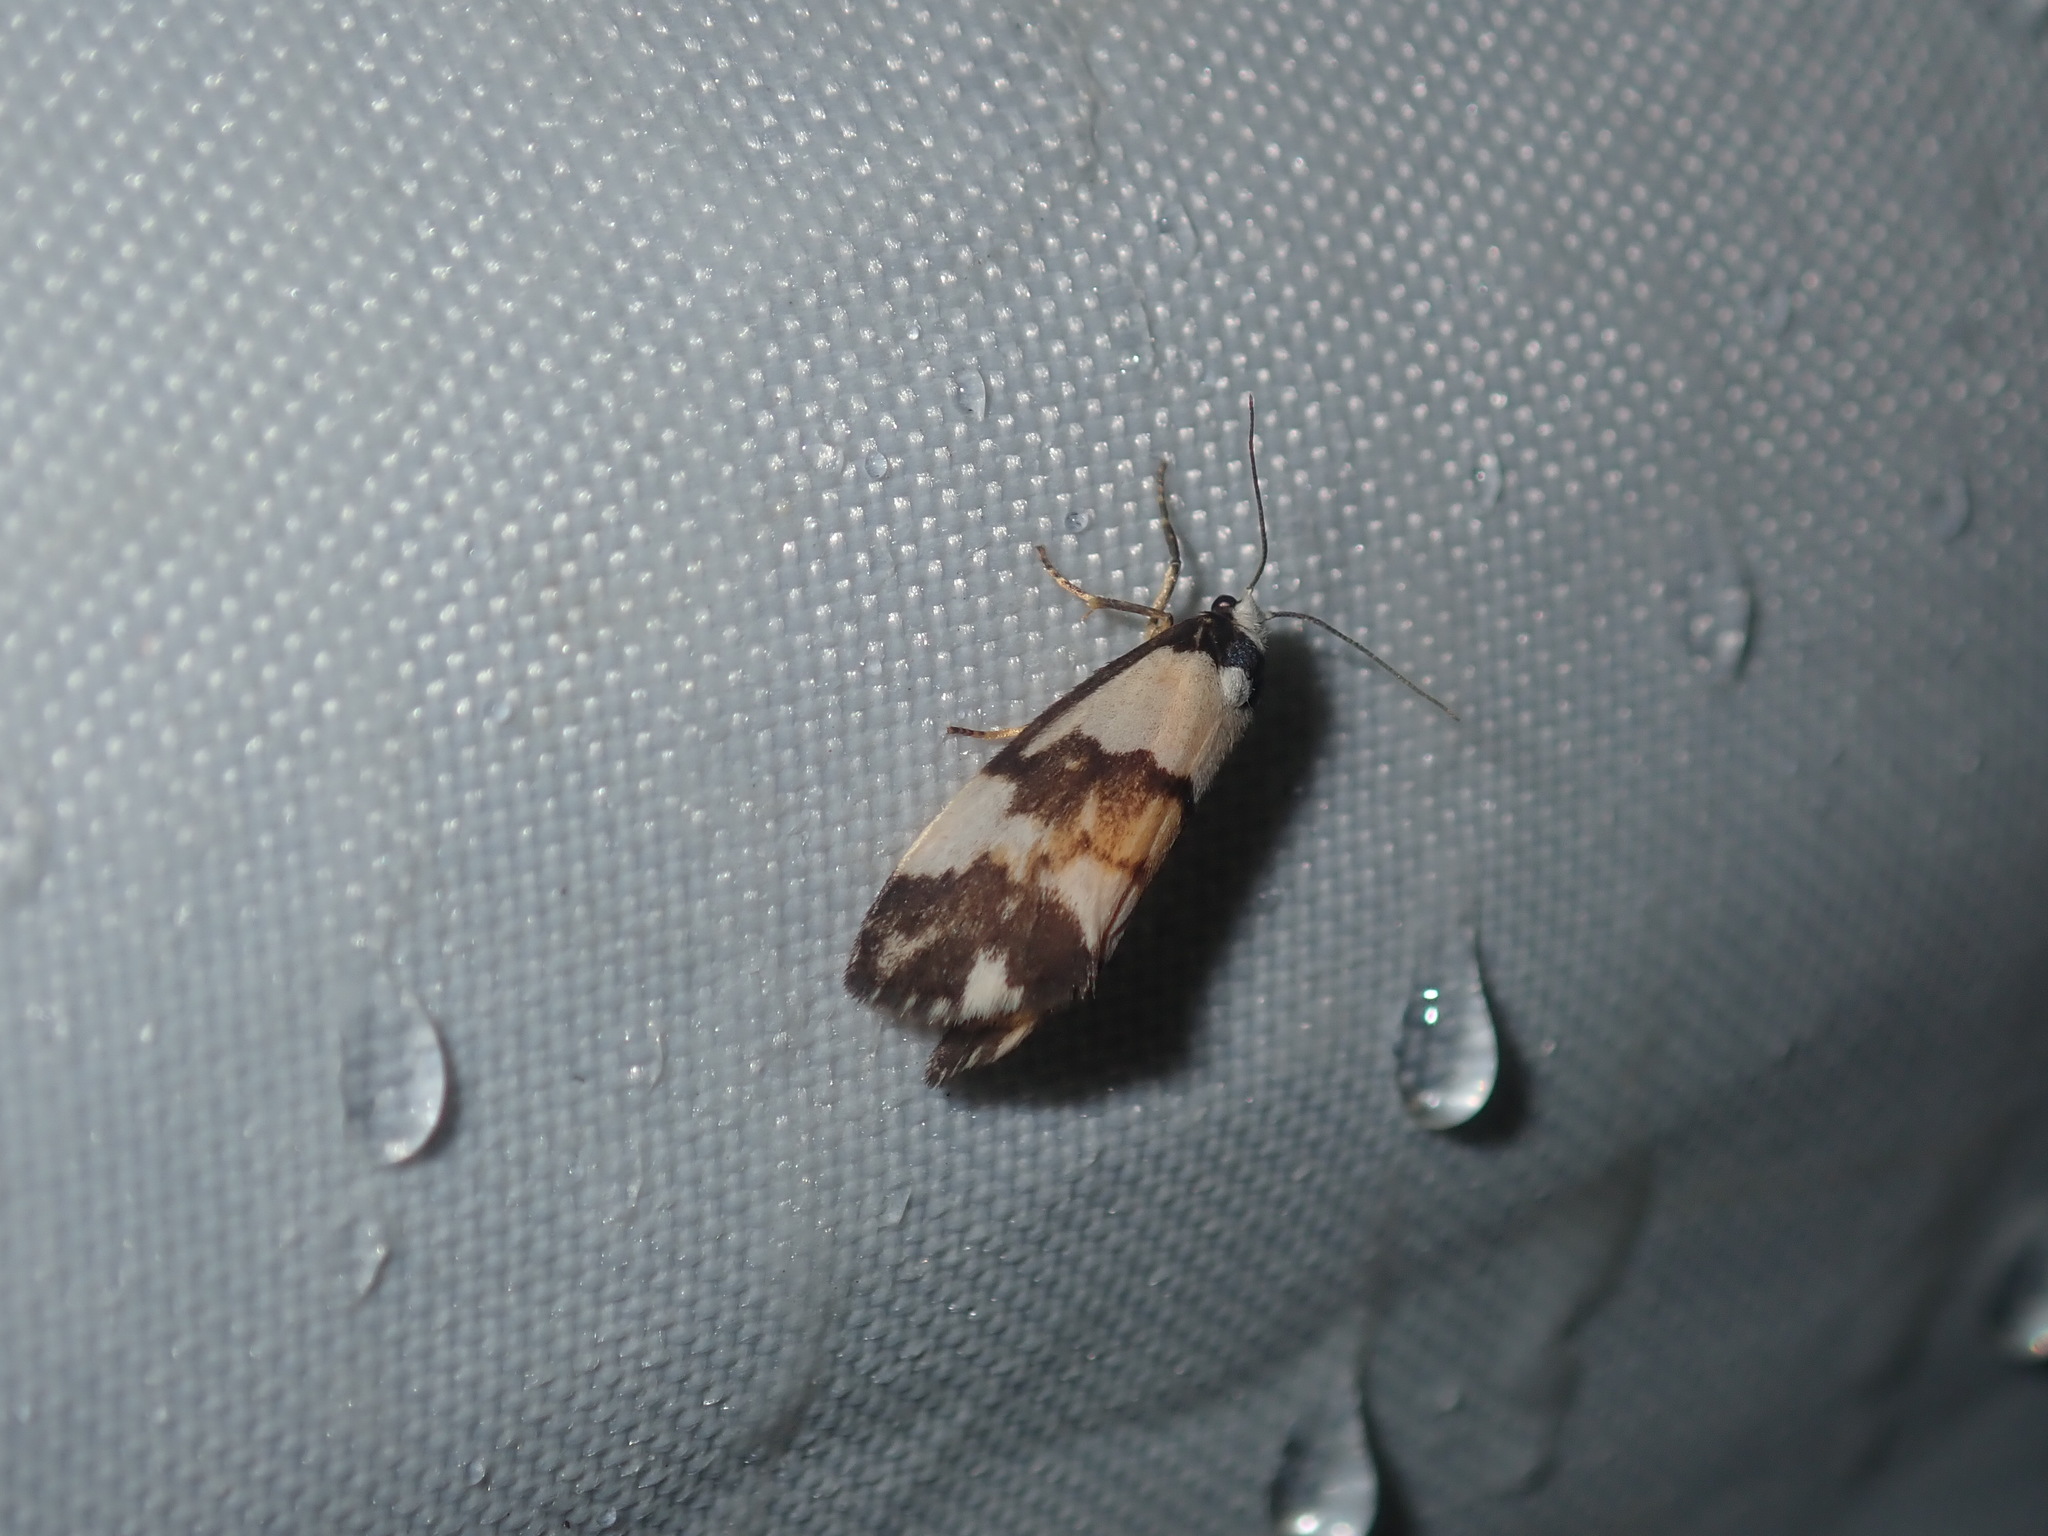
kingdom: Animalia
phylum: Arthropoda
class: Insecta
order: Lepidoptera
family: Erebidae
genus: Philenora
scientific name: Philenora irregularis
